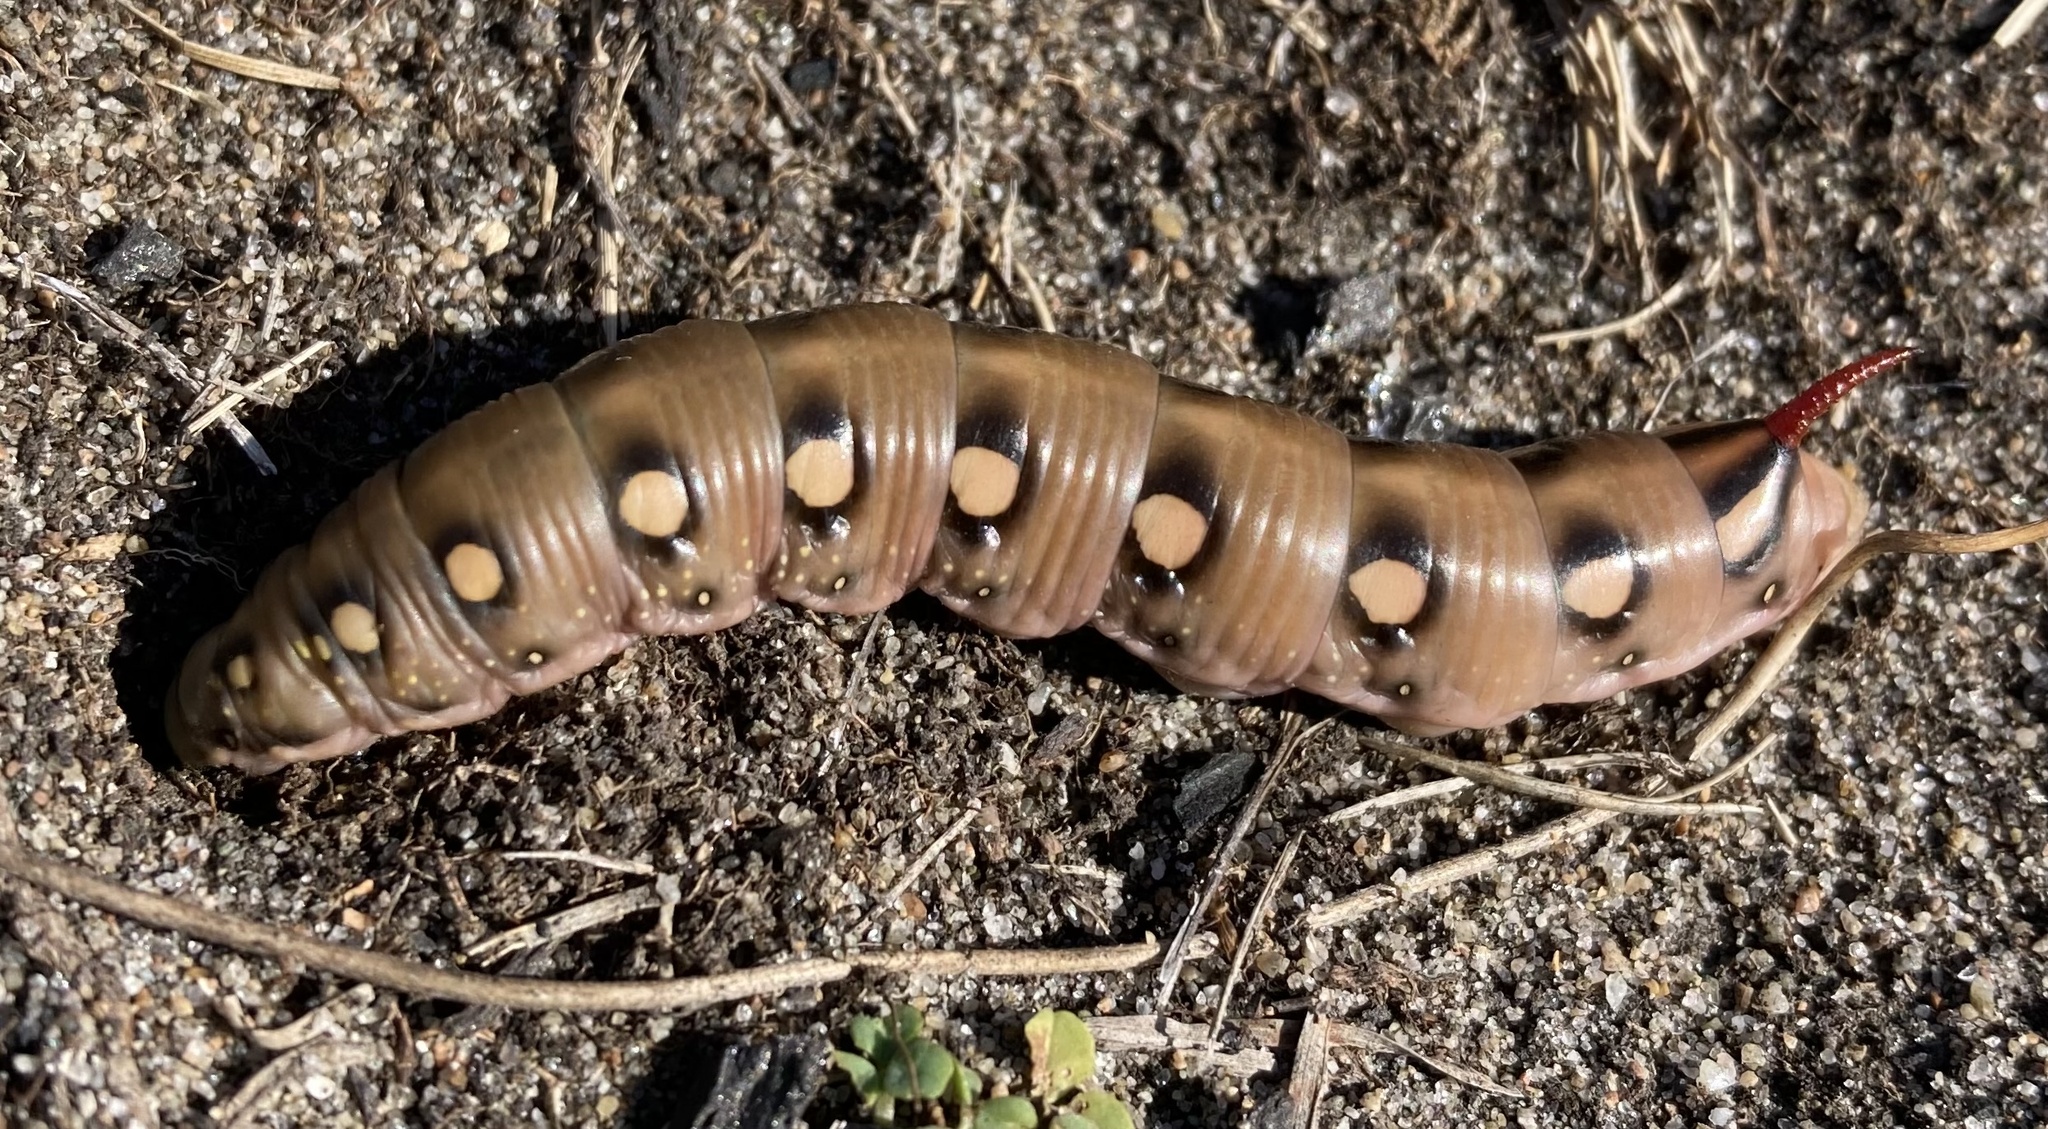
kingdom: Animalia
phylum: Arthropoda
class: Insecta
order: Lepidoptera
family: Sphingidae
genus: Hyles
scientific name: Hyles gallii
